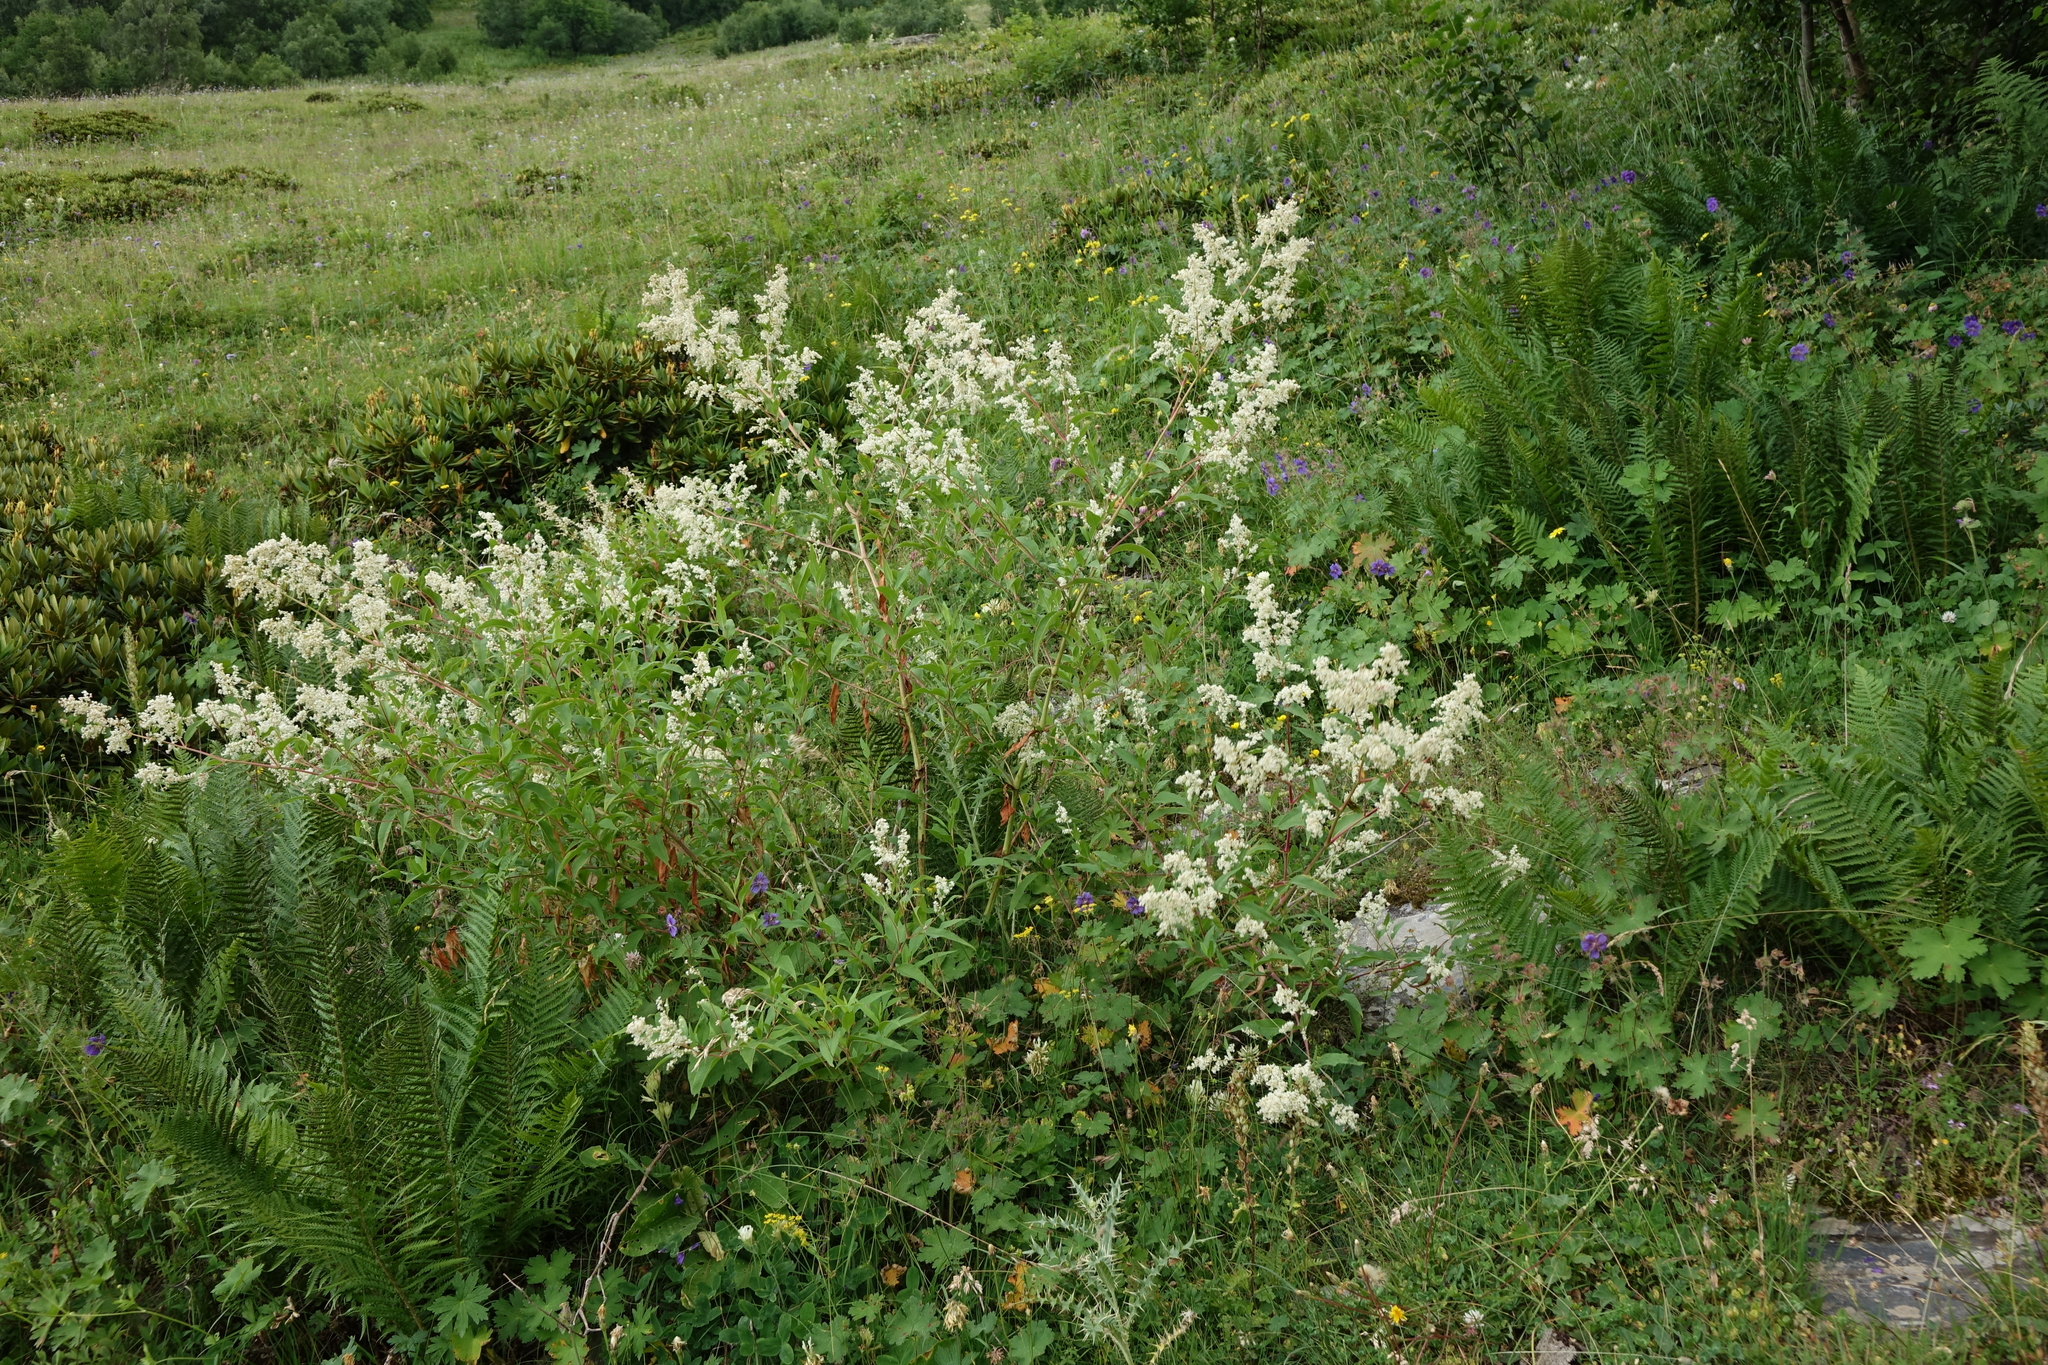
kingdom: Plantae
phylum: Tracheophyta
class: Magnoliopsida
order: Caryophyllales
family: Polygonaceae
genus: Koenigia
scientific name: Koenigia panjutinii
